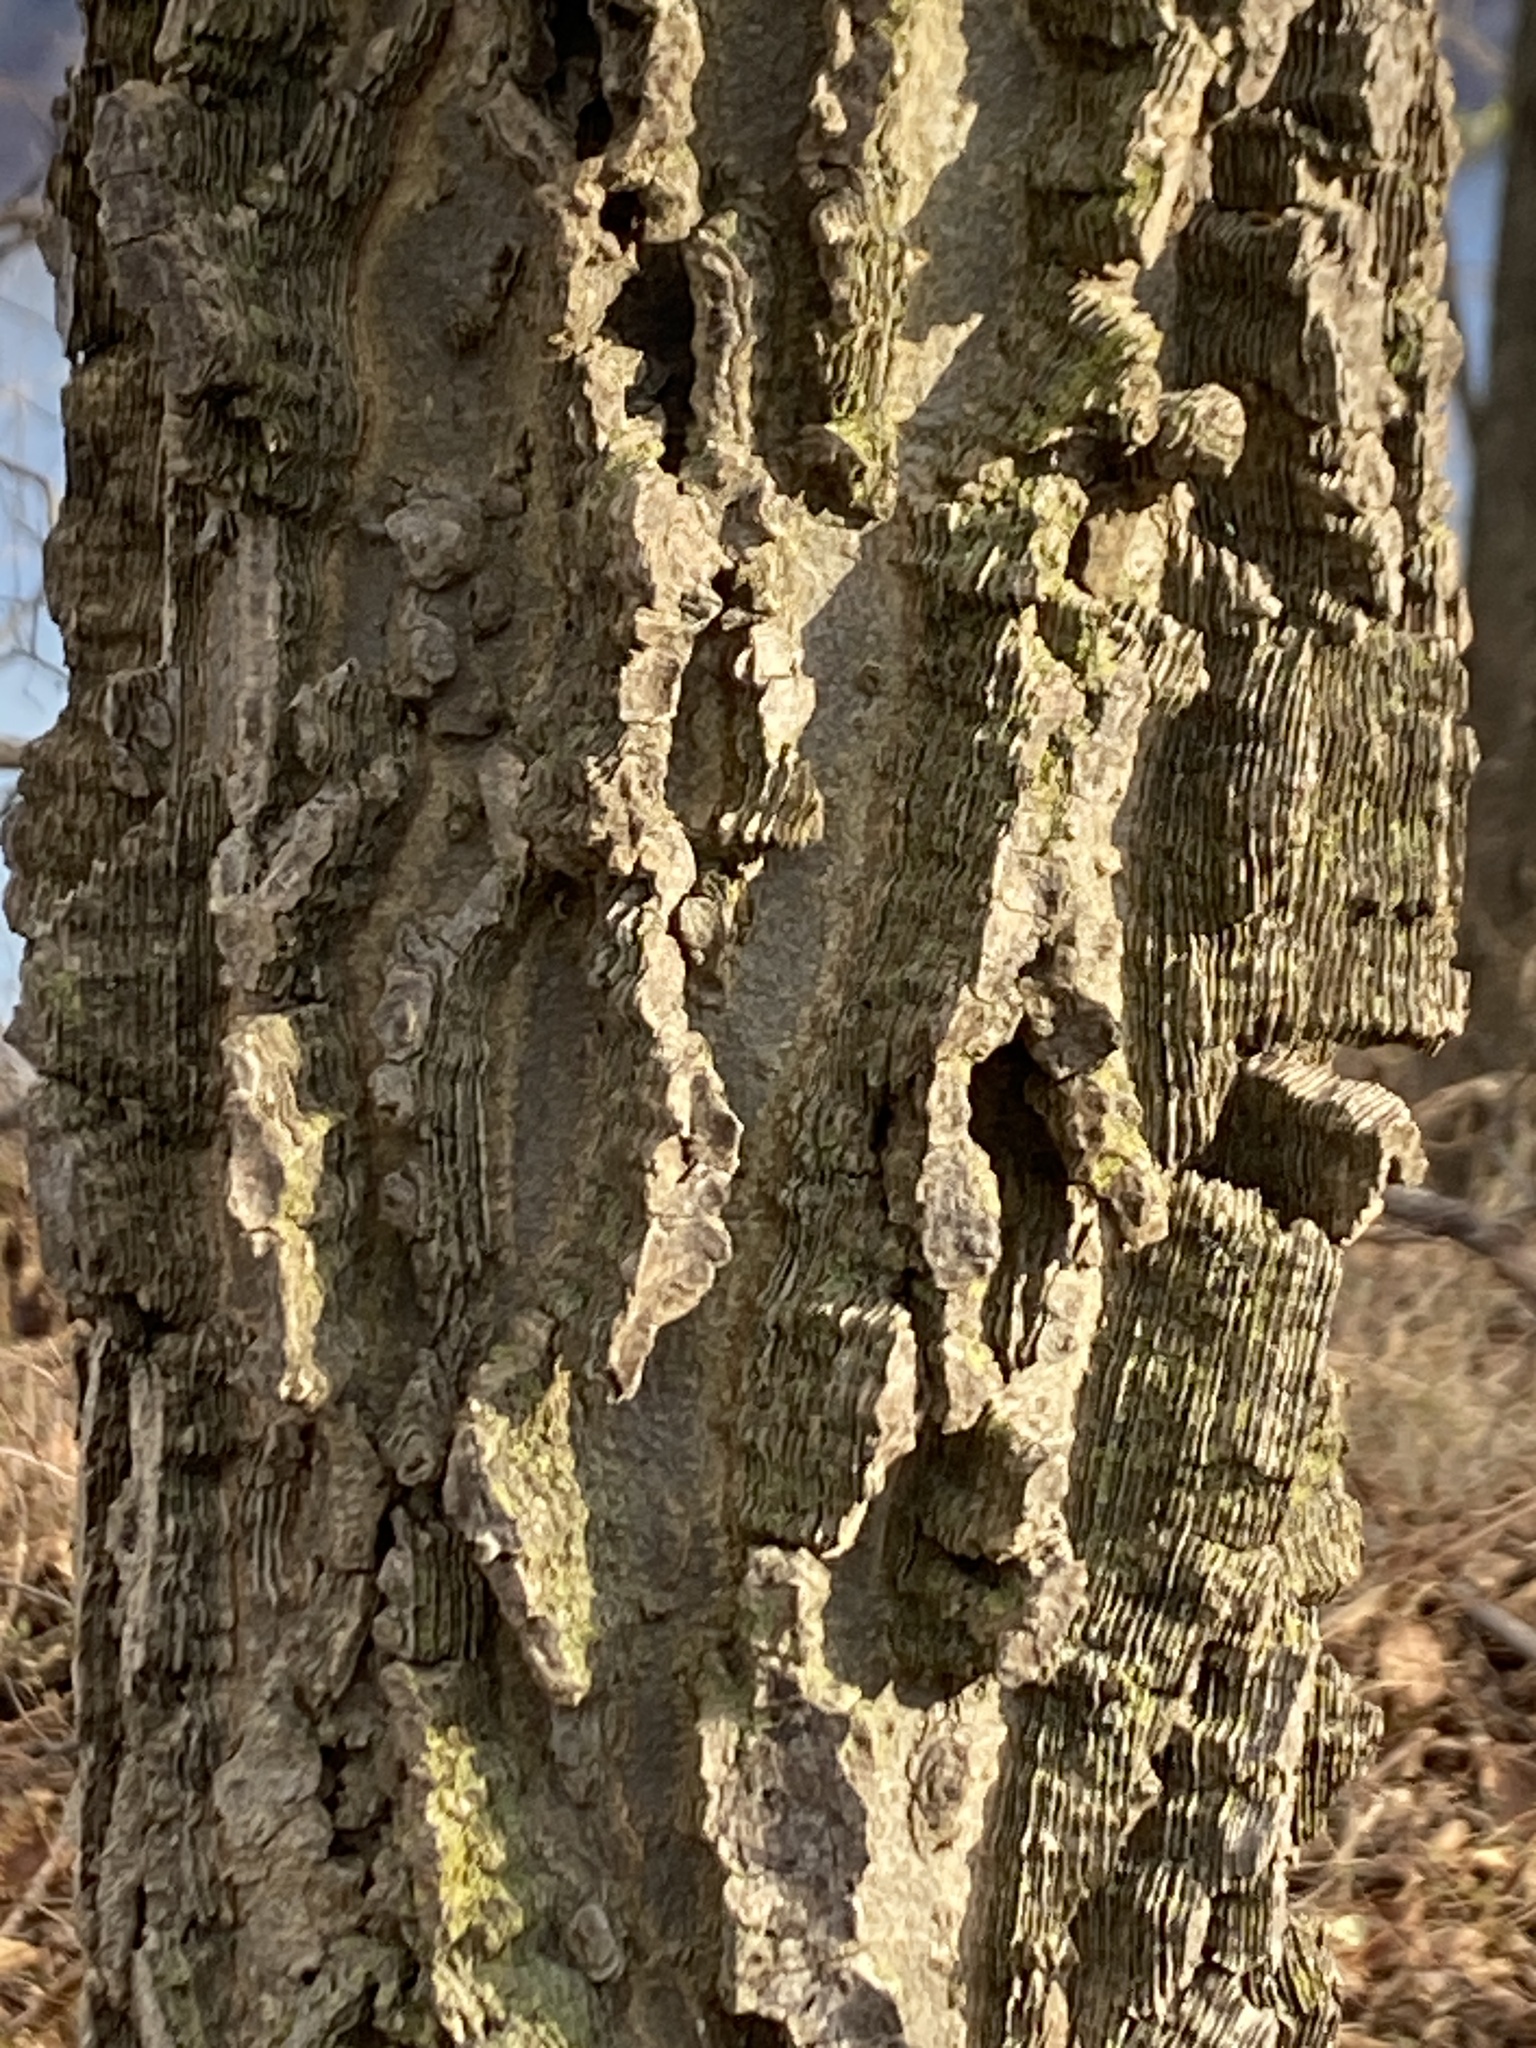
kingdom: Plantae
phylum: Tracheophyta
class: Magnoliopsida
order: Rosales
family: Cannabaceae
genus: Celtis
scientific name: Celtis occidentalis
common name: Common hackberry
